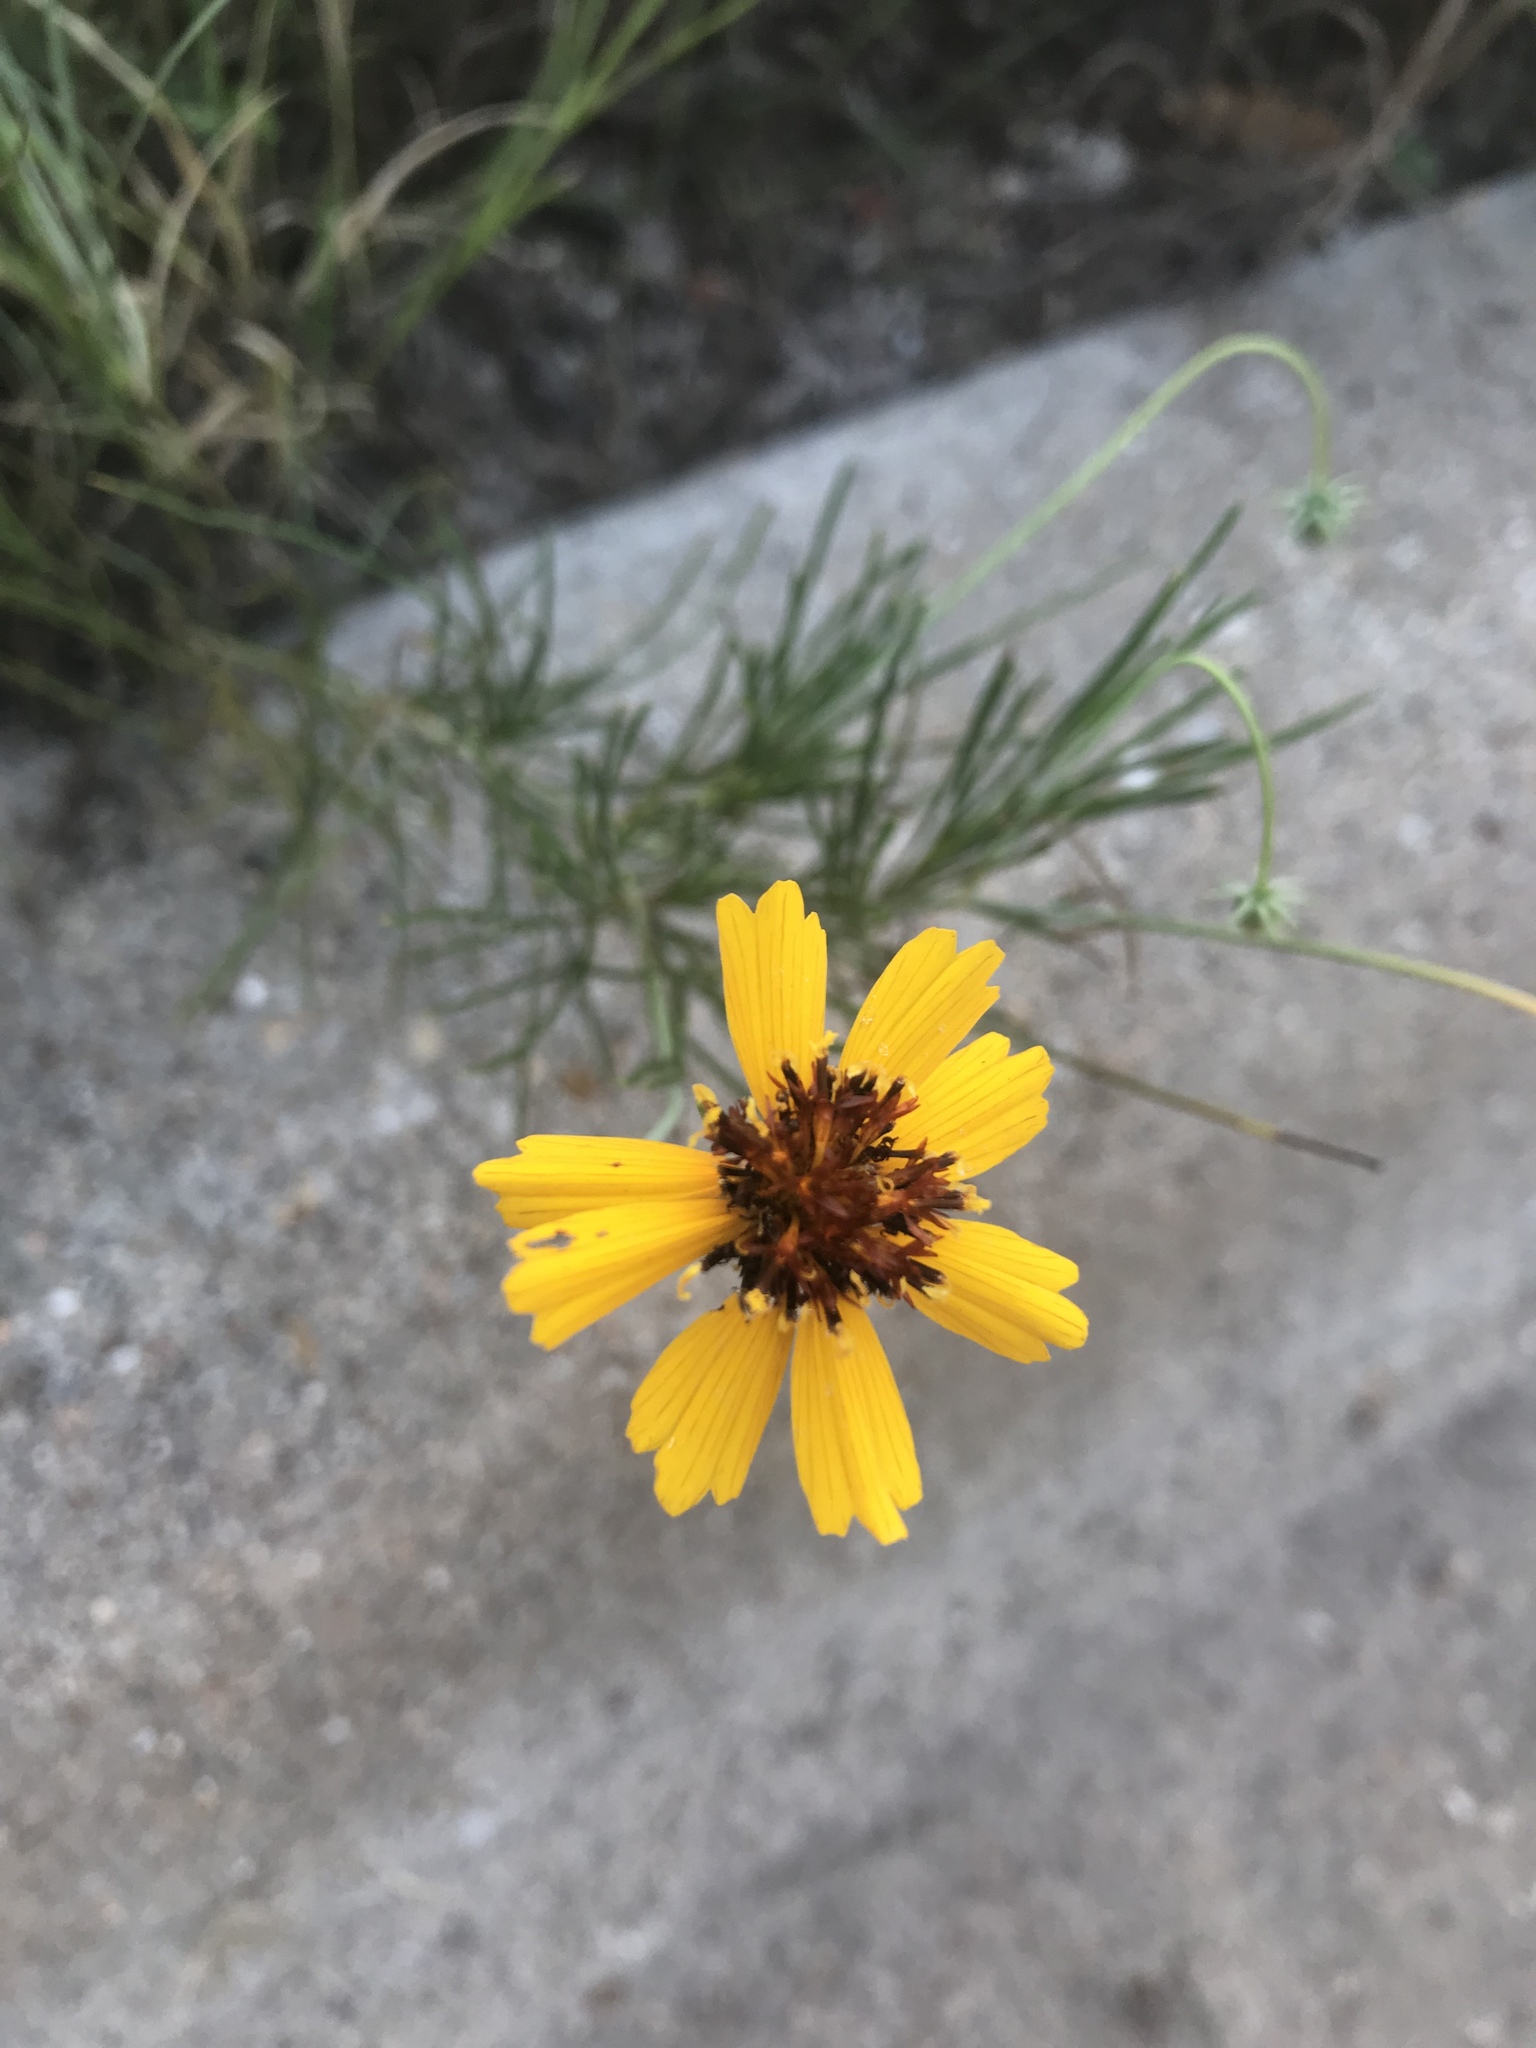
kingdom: Plantae
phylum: Tracheophyta
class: Magnoliopsida
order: Asterales
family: Asteraceae
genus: Thelesperma
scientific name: Thelesperma filifolium
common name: Stiff greenthread
